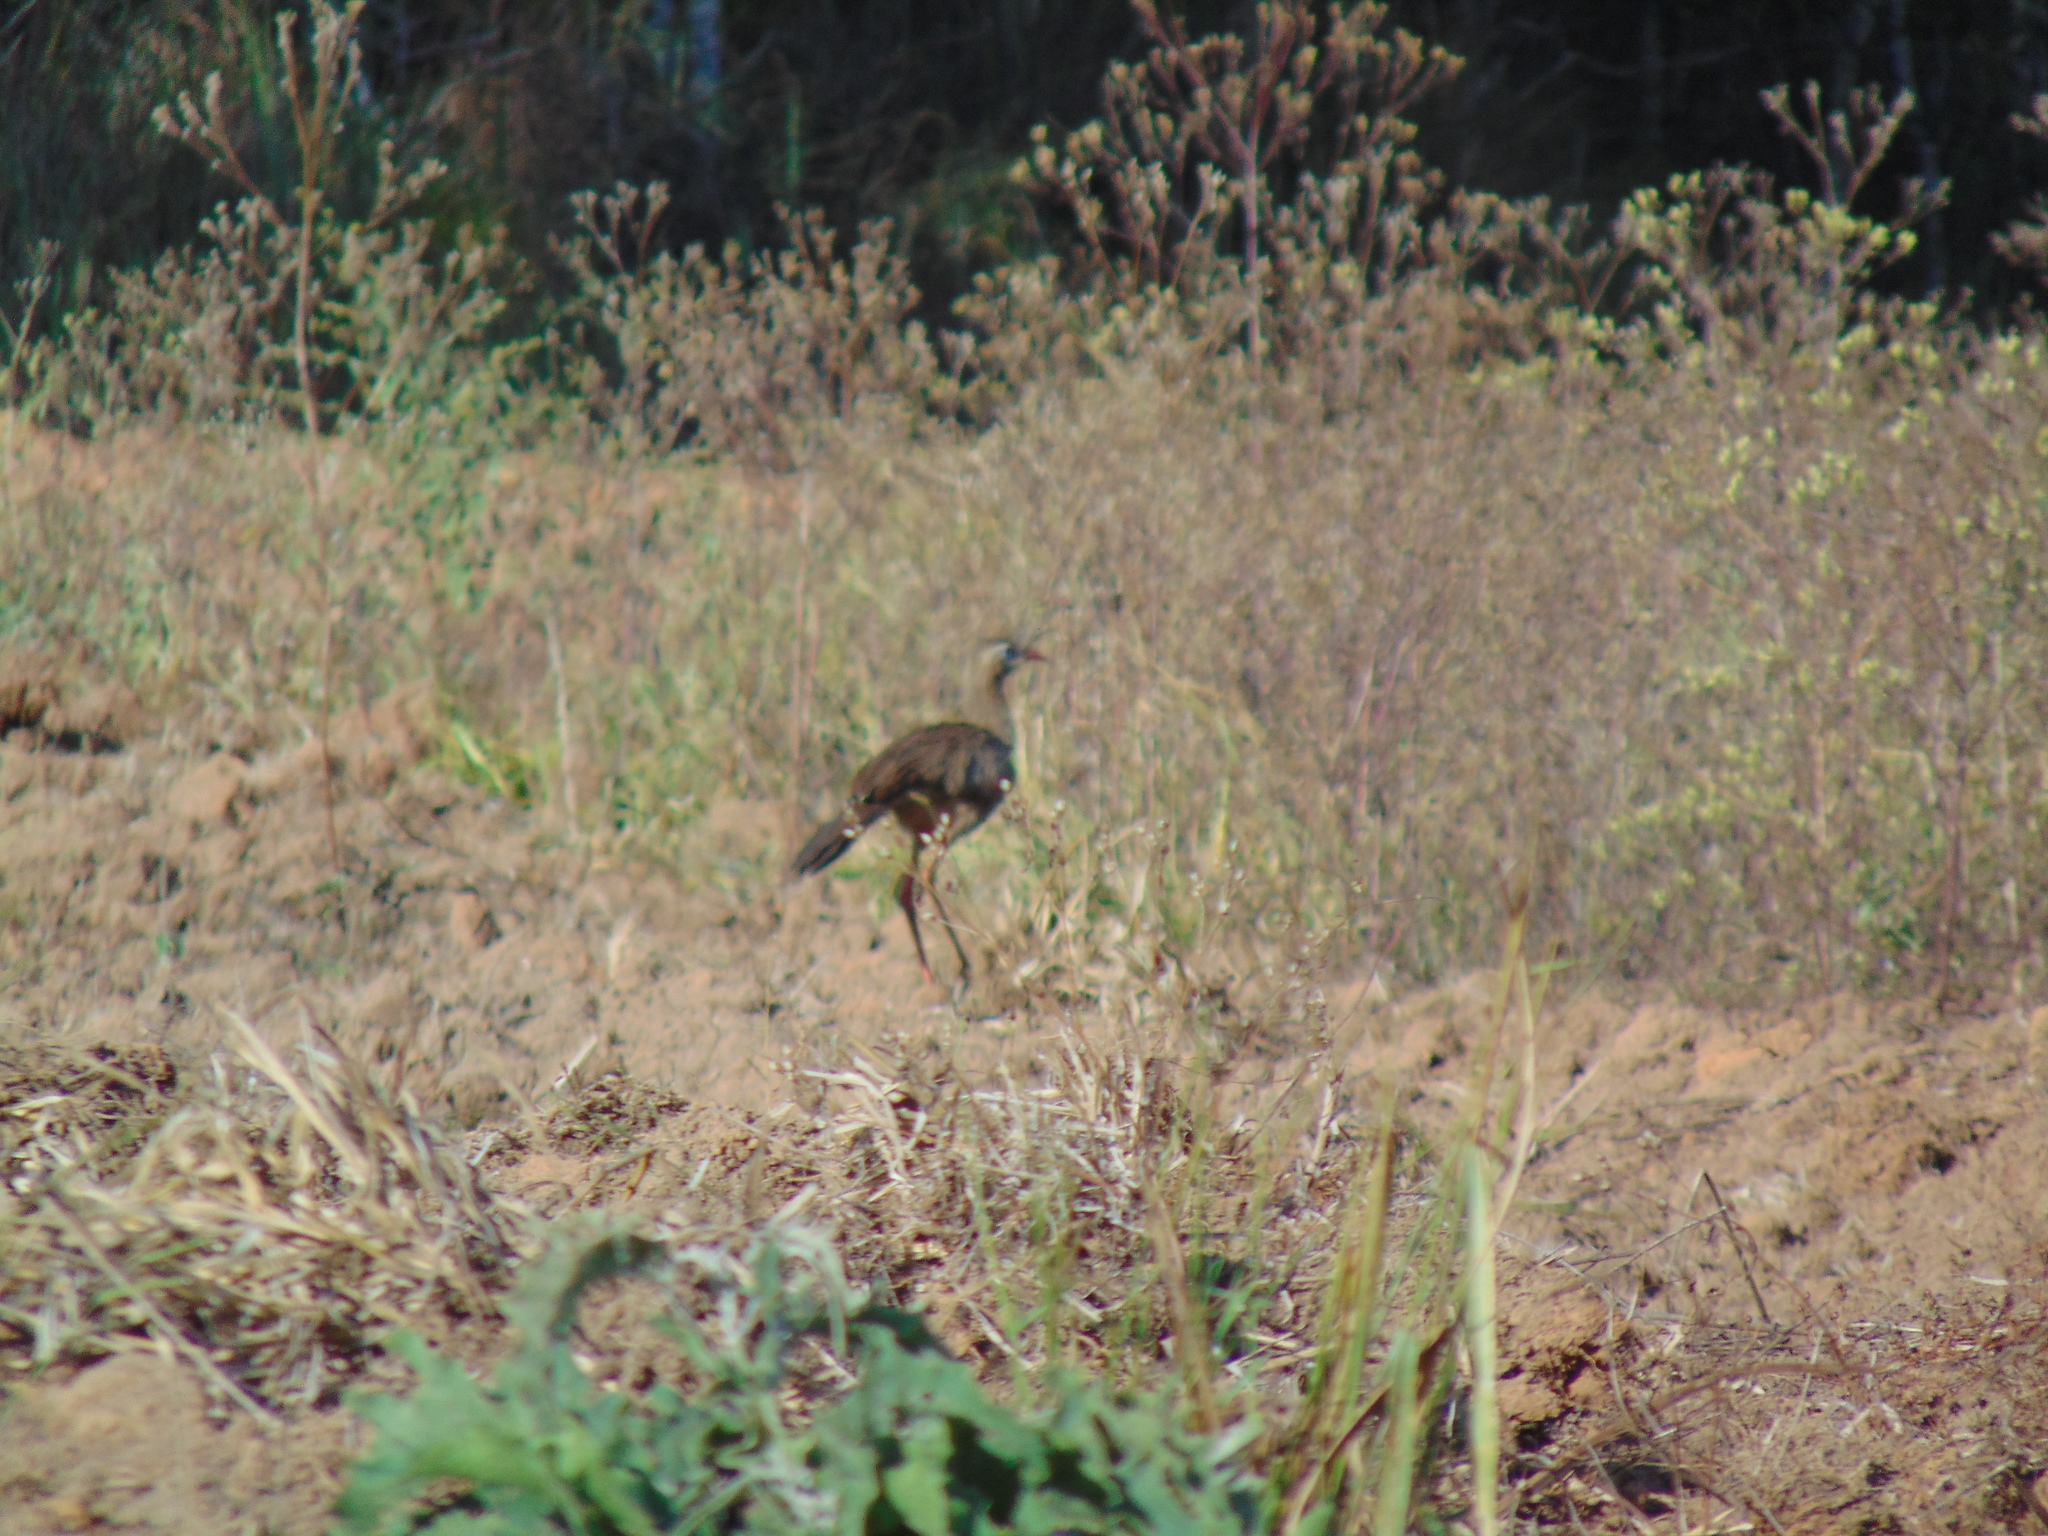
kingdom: Animalia
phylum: Chordata
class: Aves
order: Cariamiformes
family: Cariamidae
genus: Cariama
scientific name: Cariama cristata
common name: Red-legged seriema
